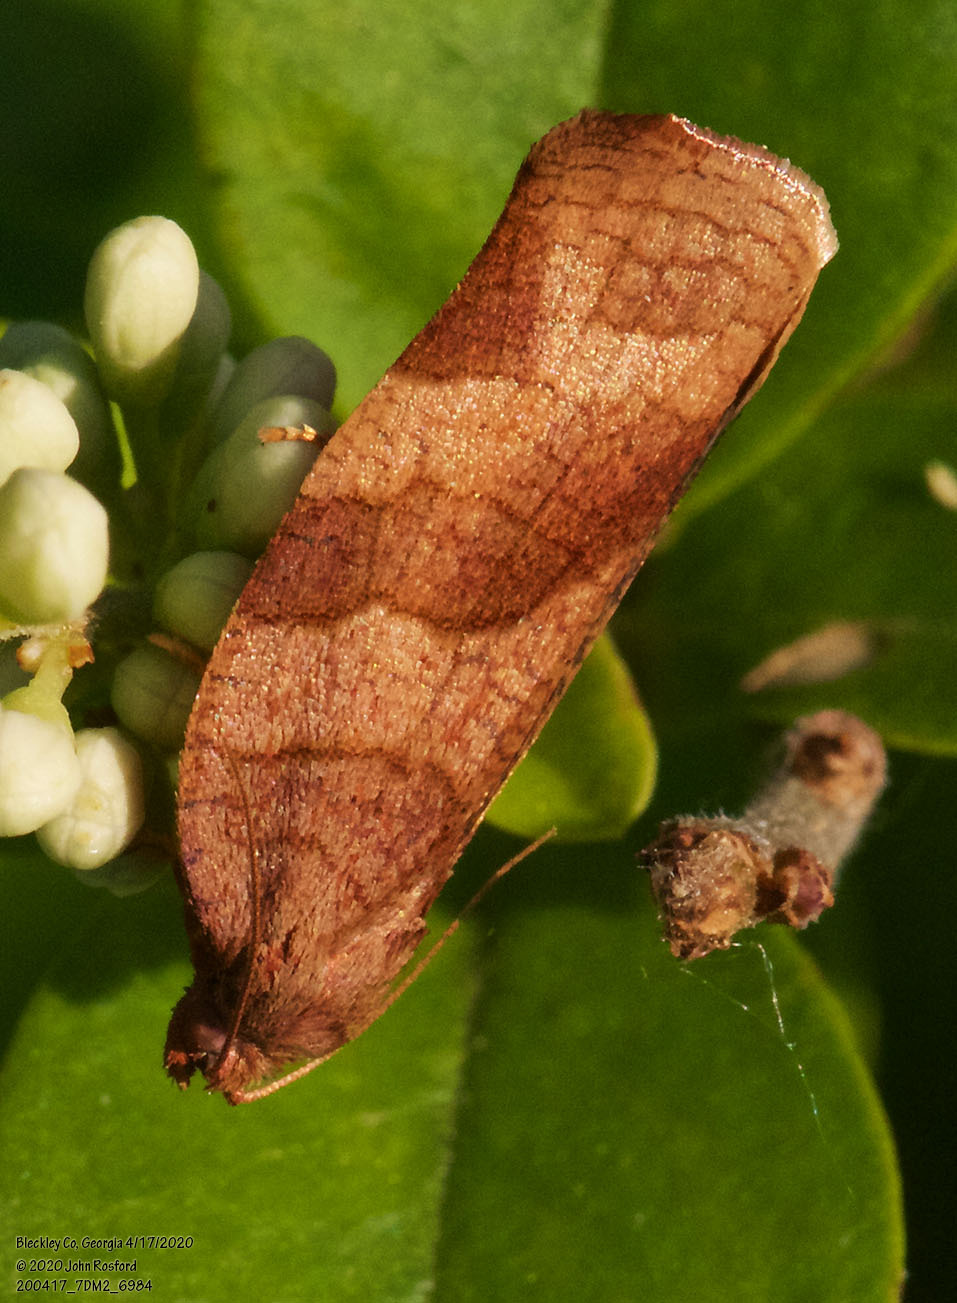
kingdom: Animalia
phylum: Arthropoda
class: Insecta
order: Lepidoptera
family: Tortricidae
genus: Choristoneura
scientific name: Choristoneura rosaceana
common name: Oblique-banded leafroller moth
